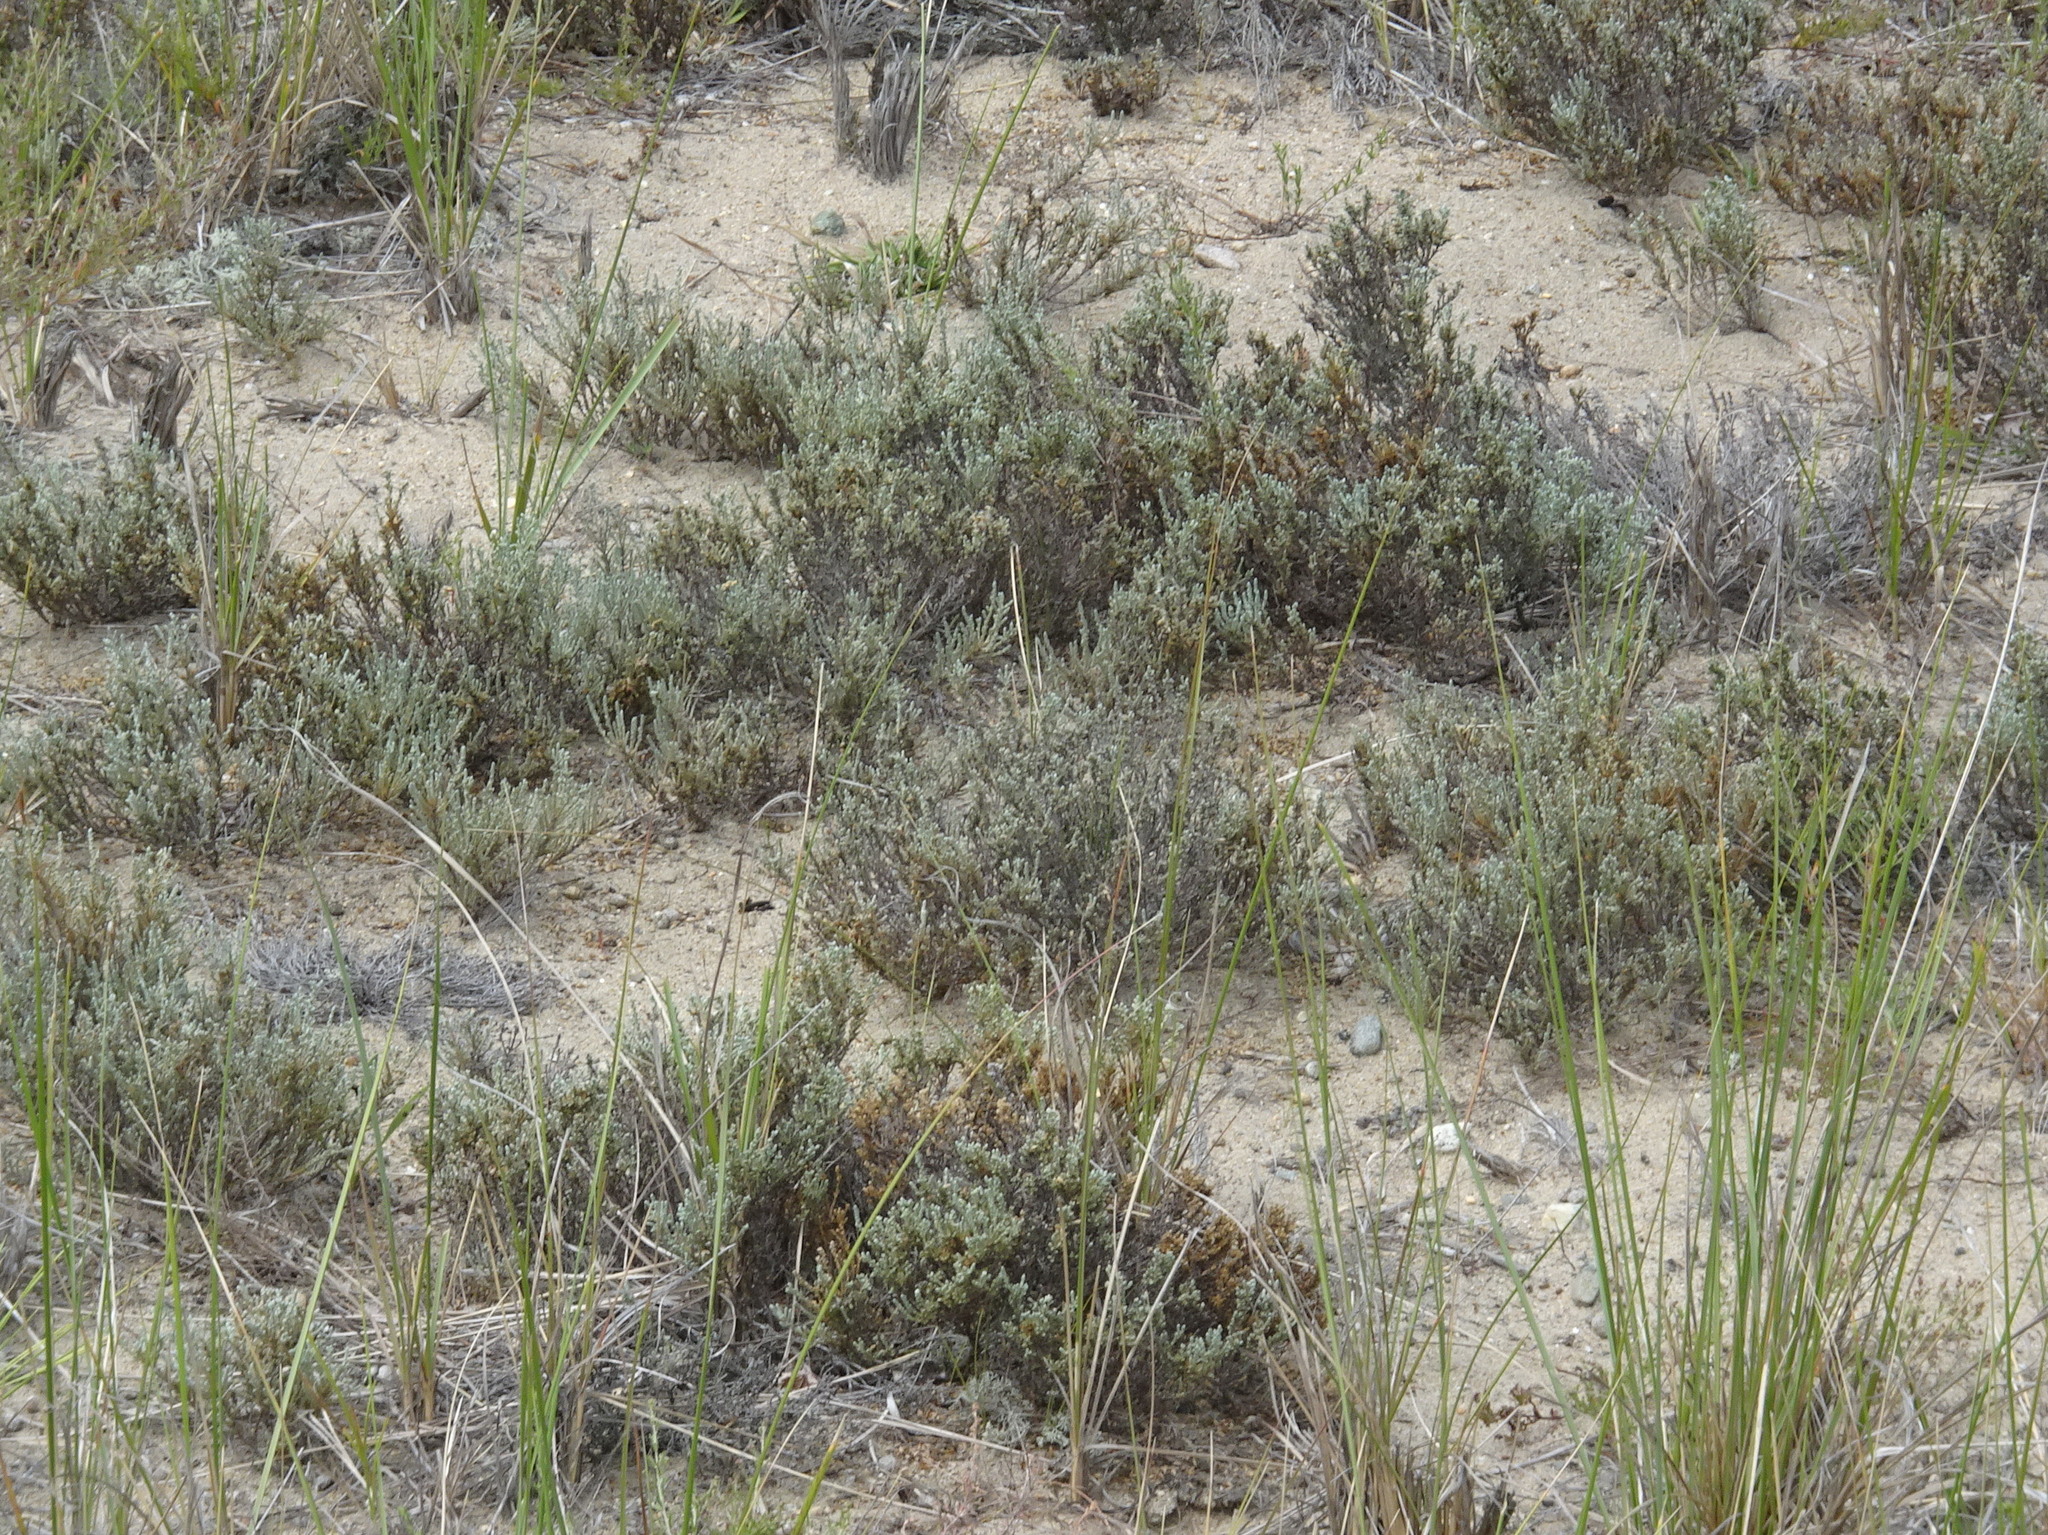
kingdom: Plantae
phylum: Tracheophyta
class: Magnoliopsida
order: Malvales
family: Cistaceae
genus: Hudsonia
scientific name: Hudsonia tomentosa
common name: Beach-heath
